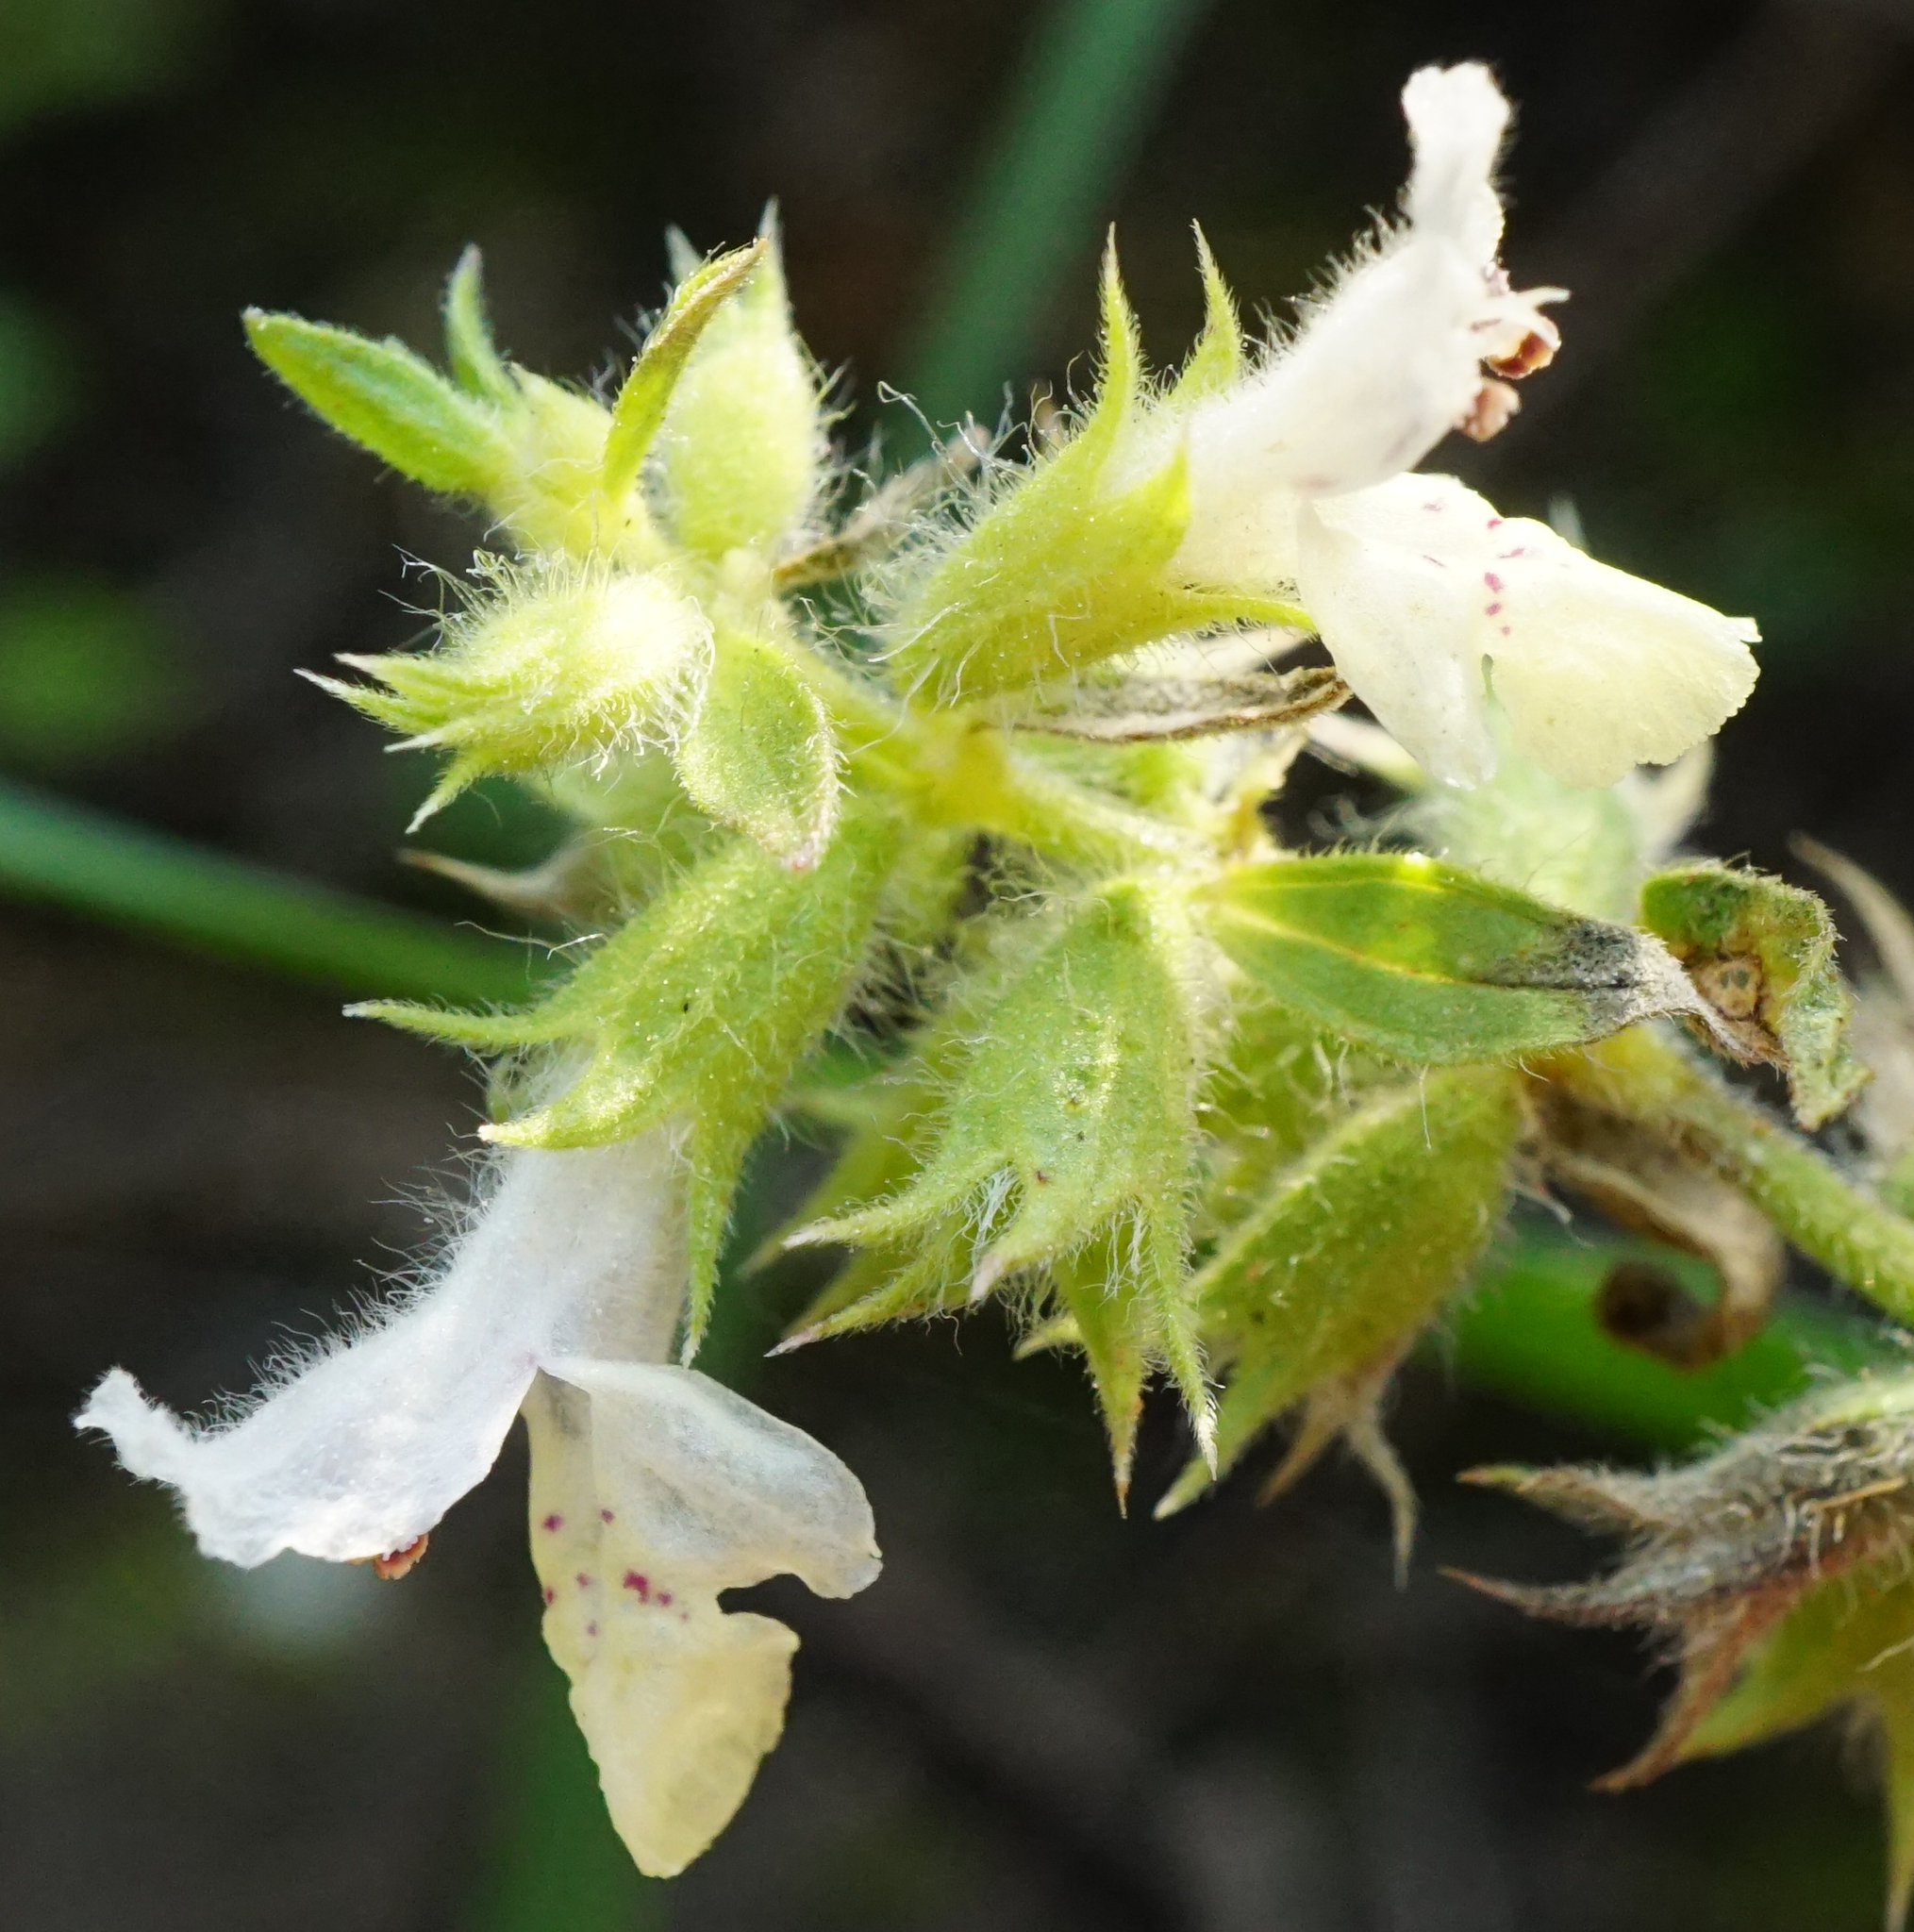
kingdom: Plantae
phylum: Tracheophyta
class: Magnoliopsida
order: Lamiales
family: Lamiaceae
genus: Stachys
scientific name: Stachys annua
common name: Annual yellow-woundwort
